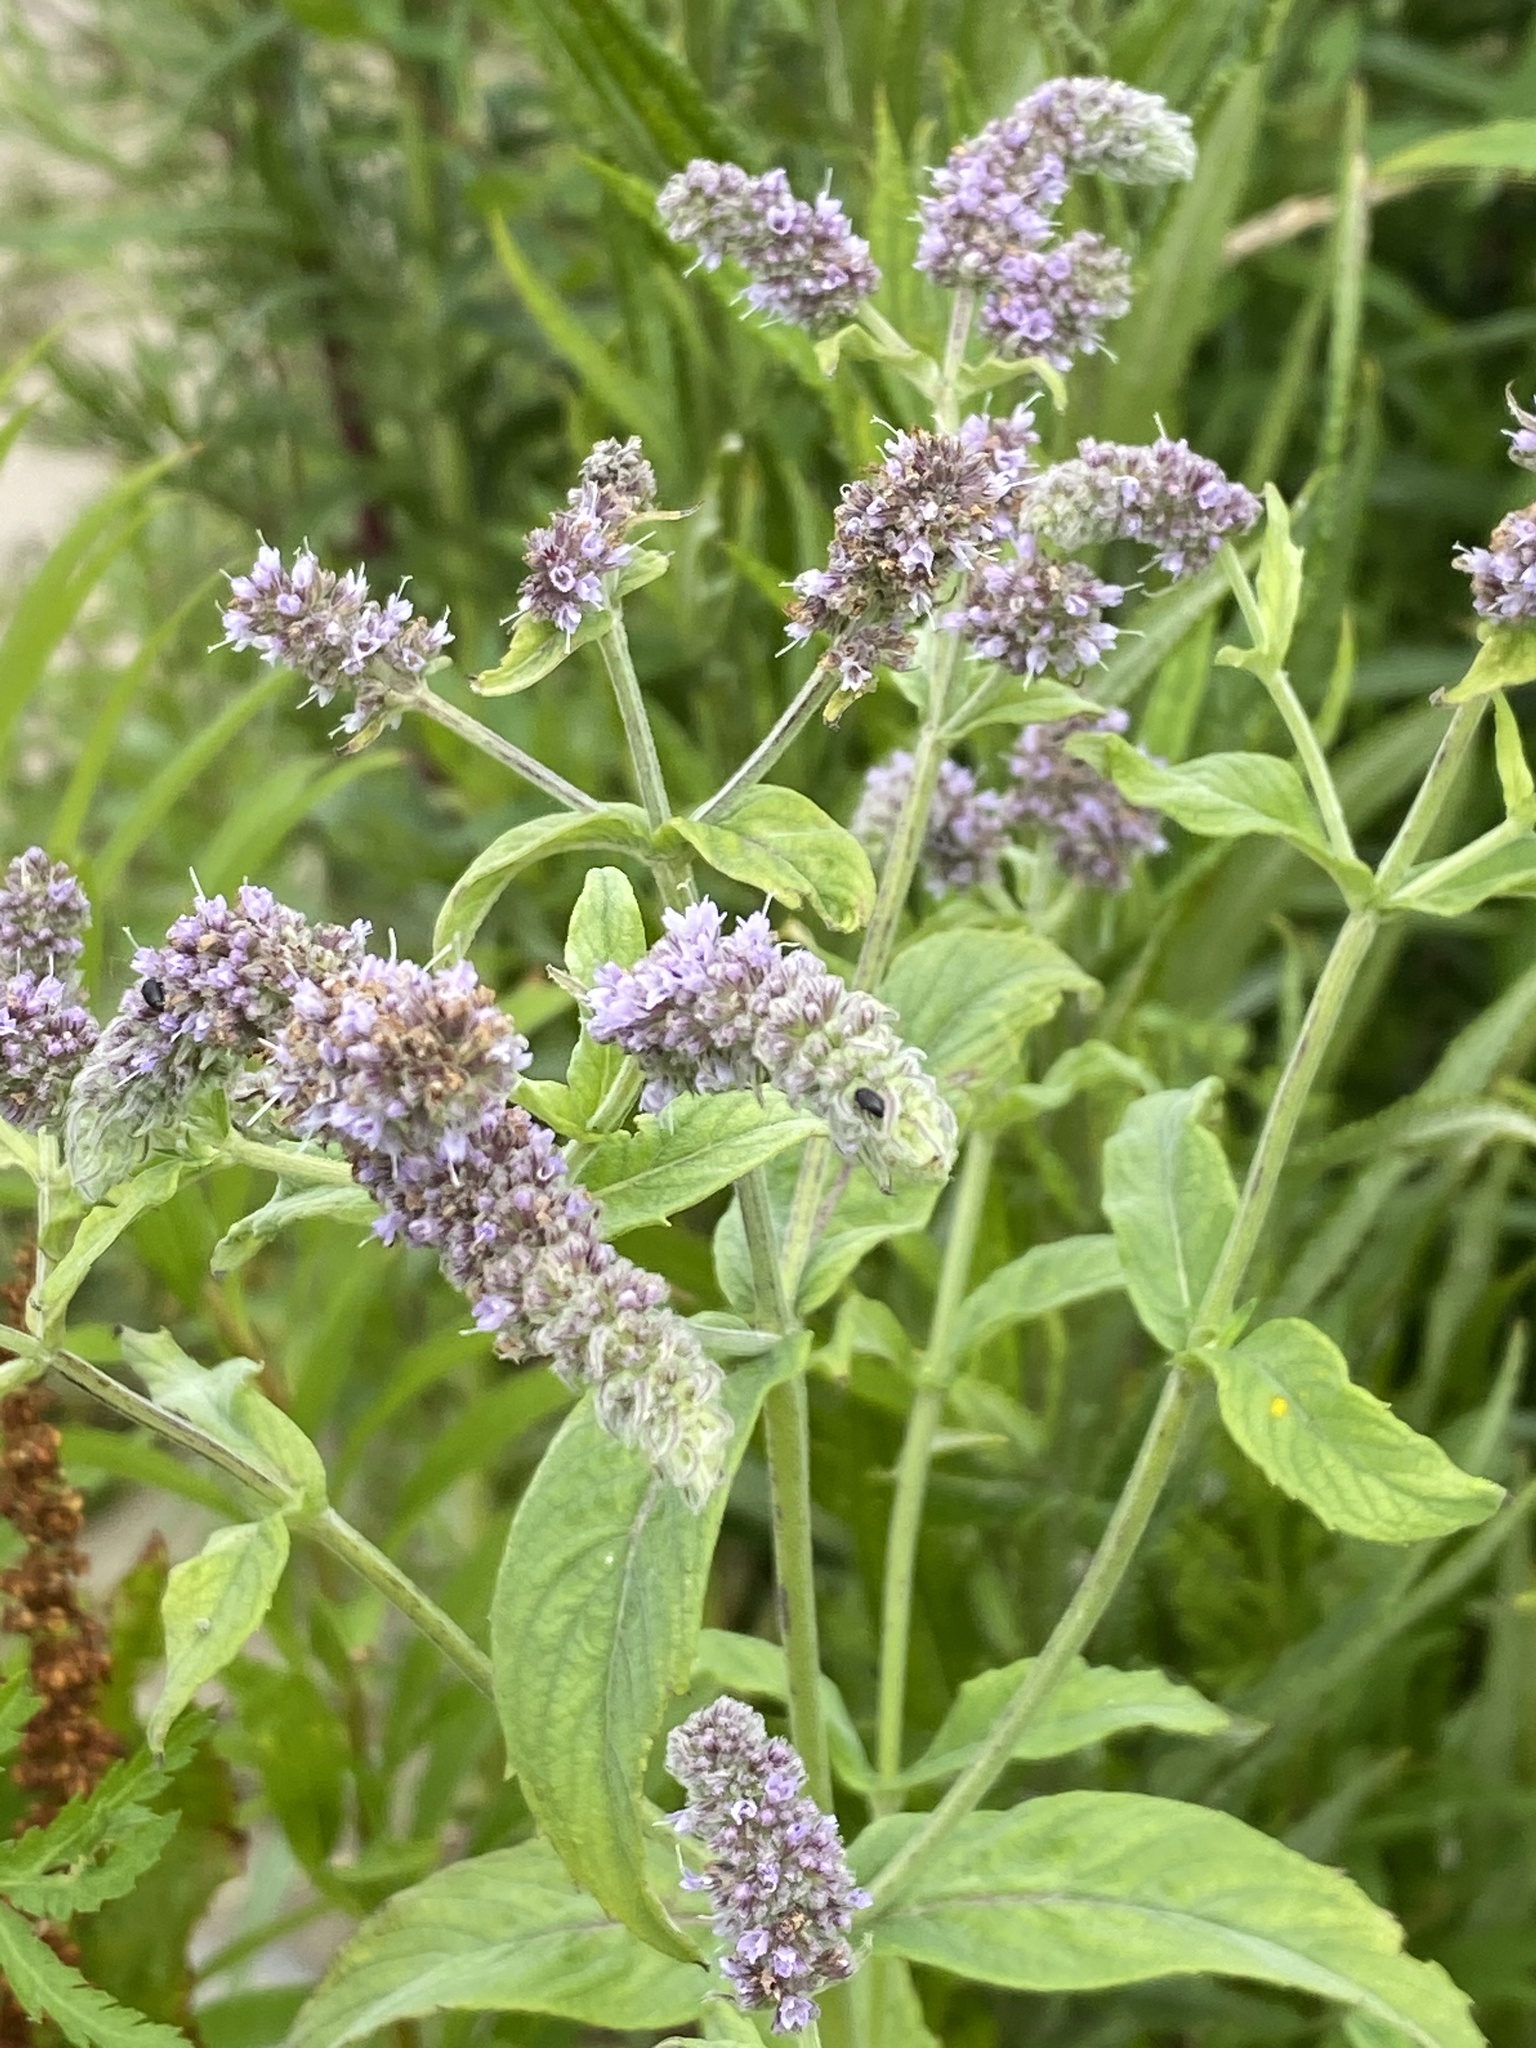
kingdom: Plantae
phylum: Tracheophyta
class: Magnoliopsida
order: Lamiales
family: Lamiaceae
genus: Mentha
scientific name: Mentha longifolia
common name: Horse mint
